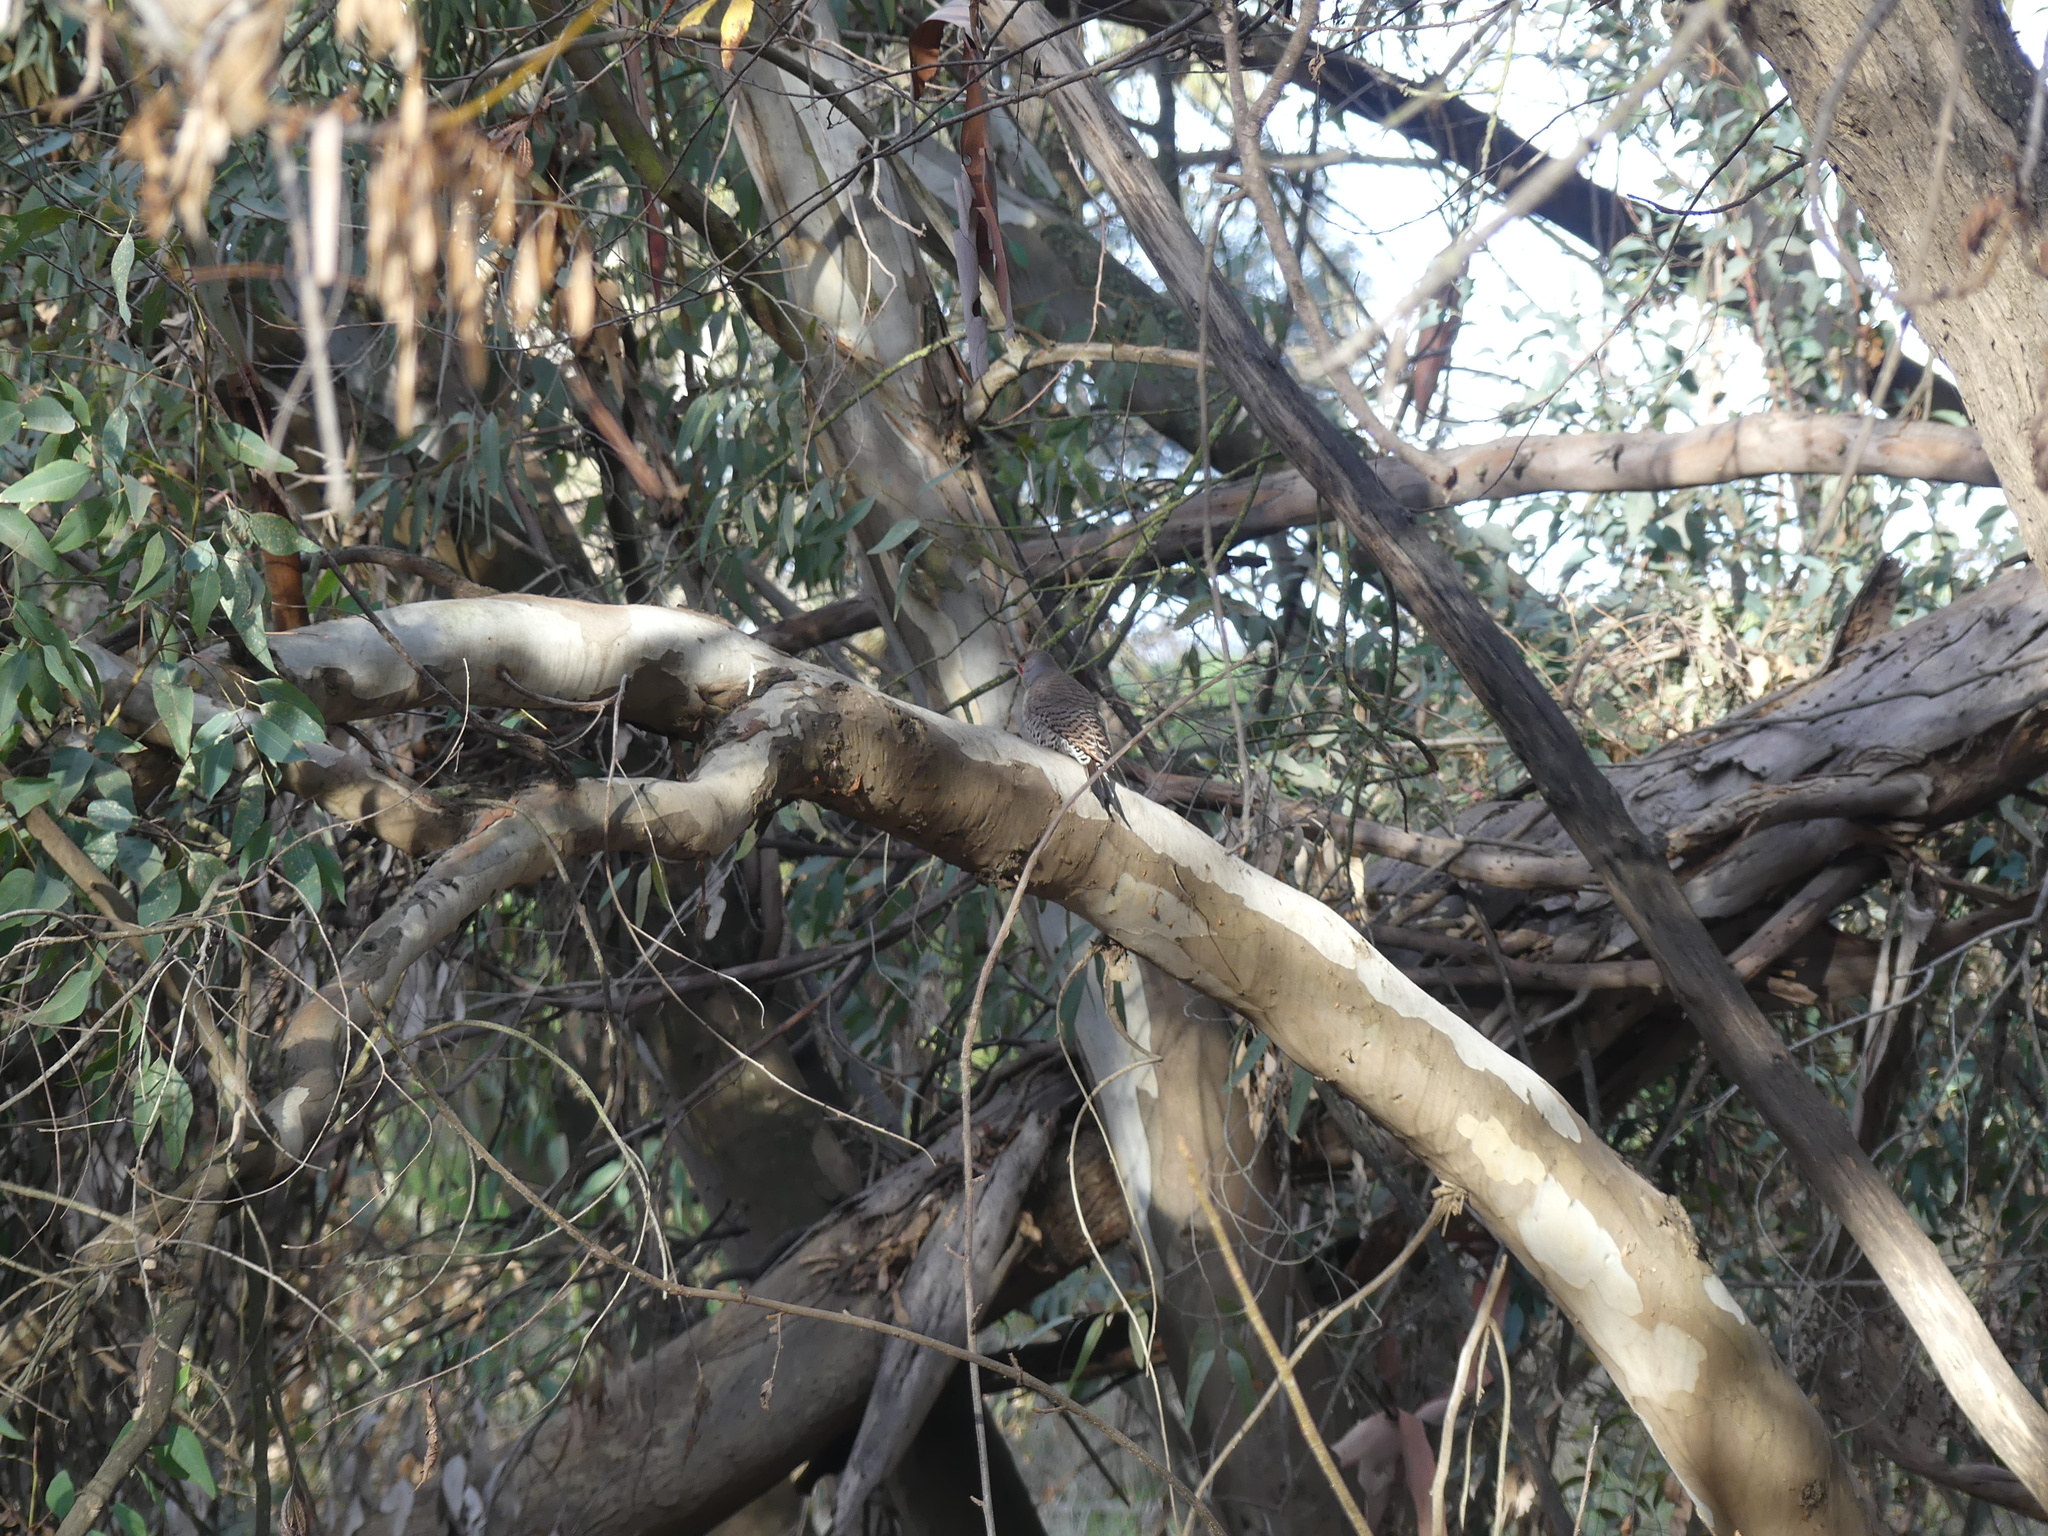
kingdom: Animalia
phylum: Chordata
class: Aves
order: Piciformes
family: Picidae
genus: Colaptes
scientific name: Colaptes auratus
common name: Northern flicker
